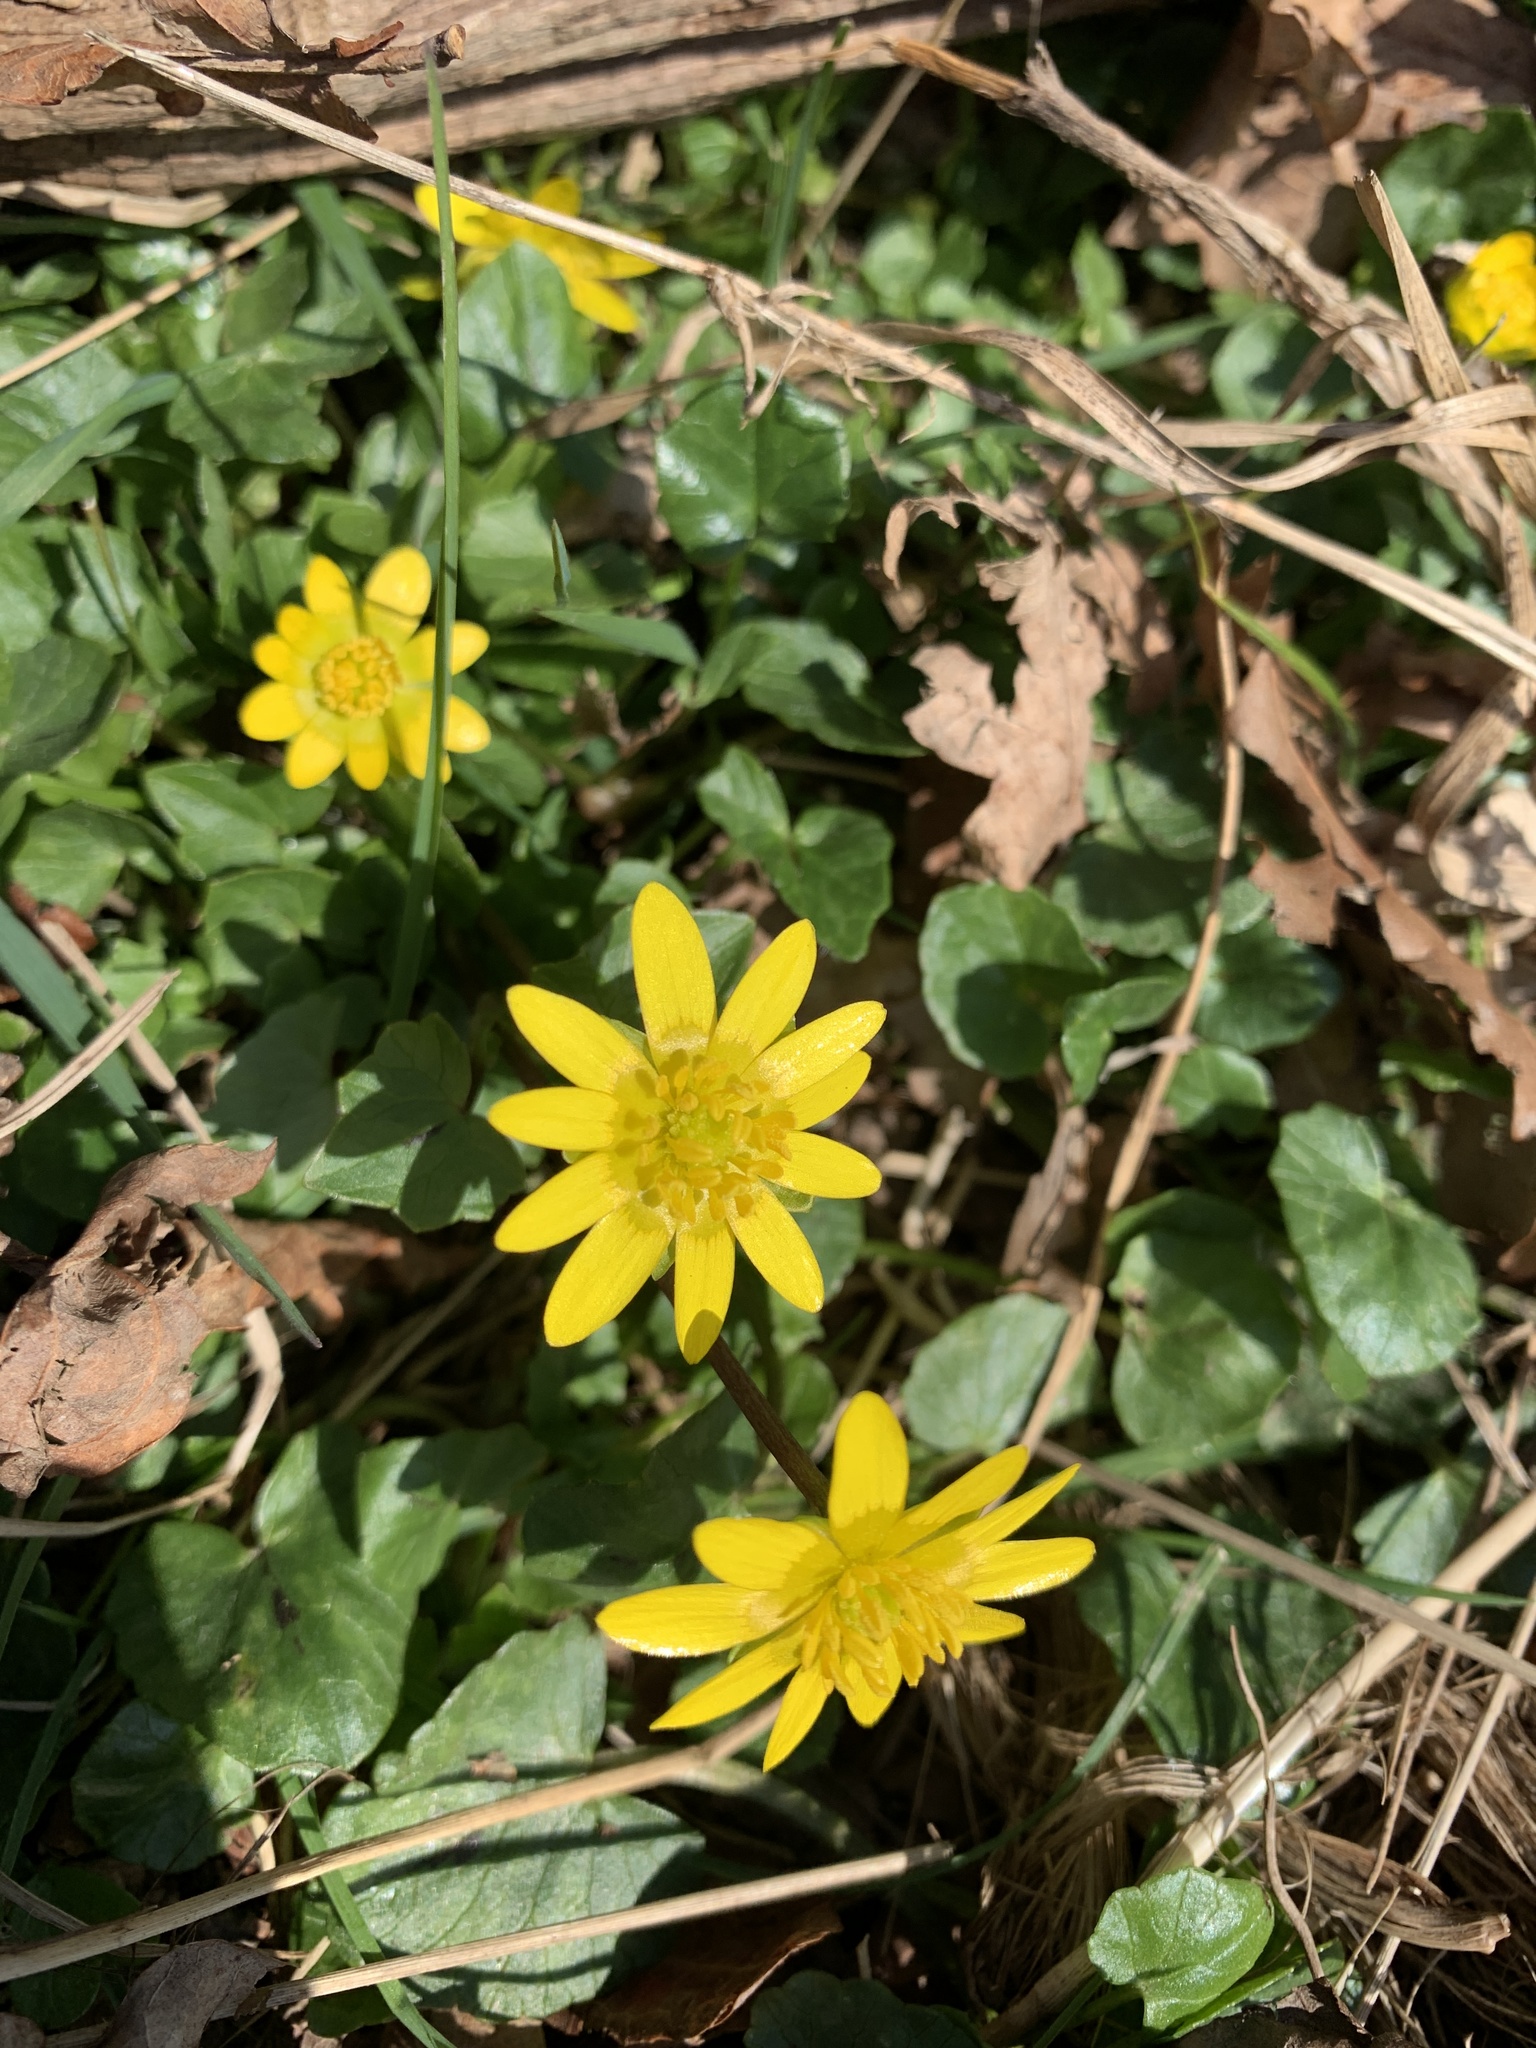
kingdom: Plantae
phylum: Tracheophyta
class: Magnoliopsida
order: Ranunculales
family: Ranunculaceae
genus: Ficaria
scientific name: Ficaria verna
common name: Lesser celandine
